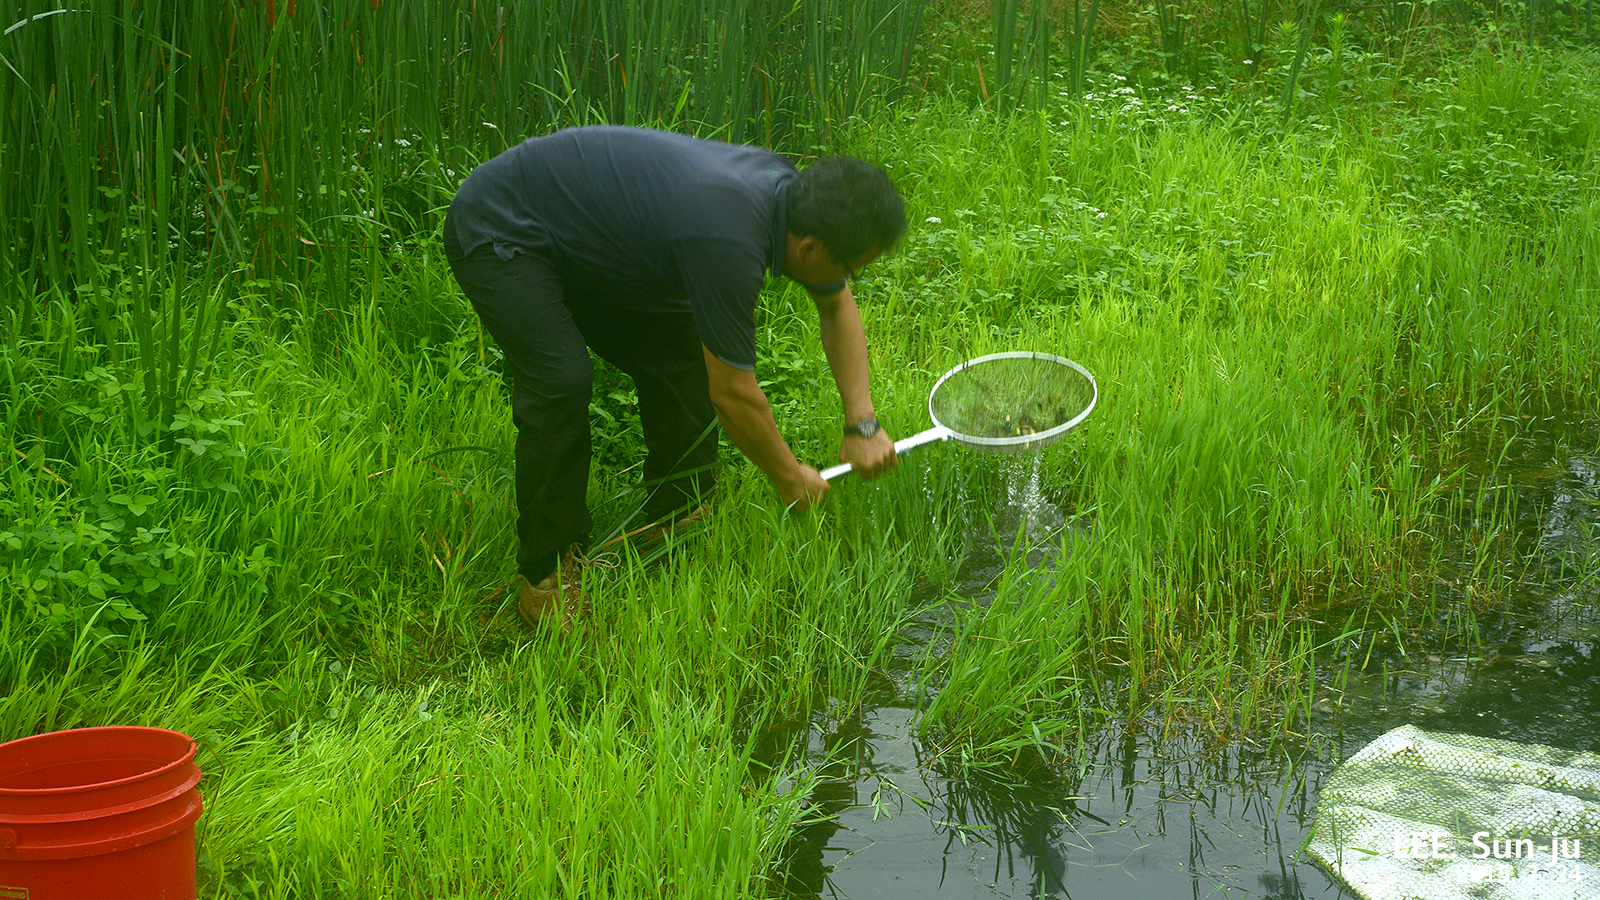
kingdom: Animalia
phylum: Chordata
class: Amphibia
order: Anura
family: Ranidae
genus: Lithobates
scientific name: Lithobates catesbeianus
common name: American bullfrog
